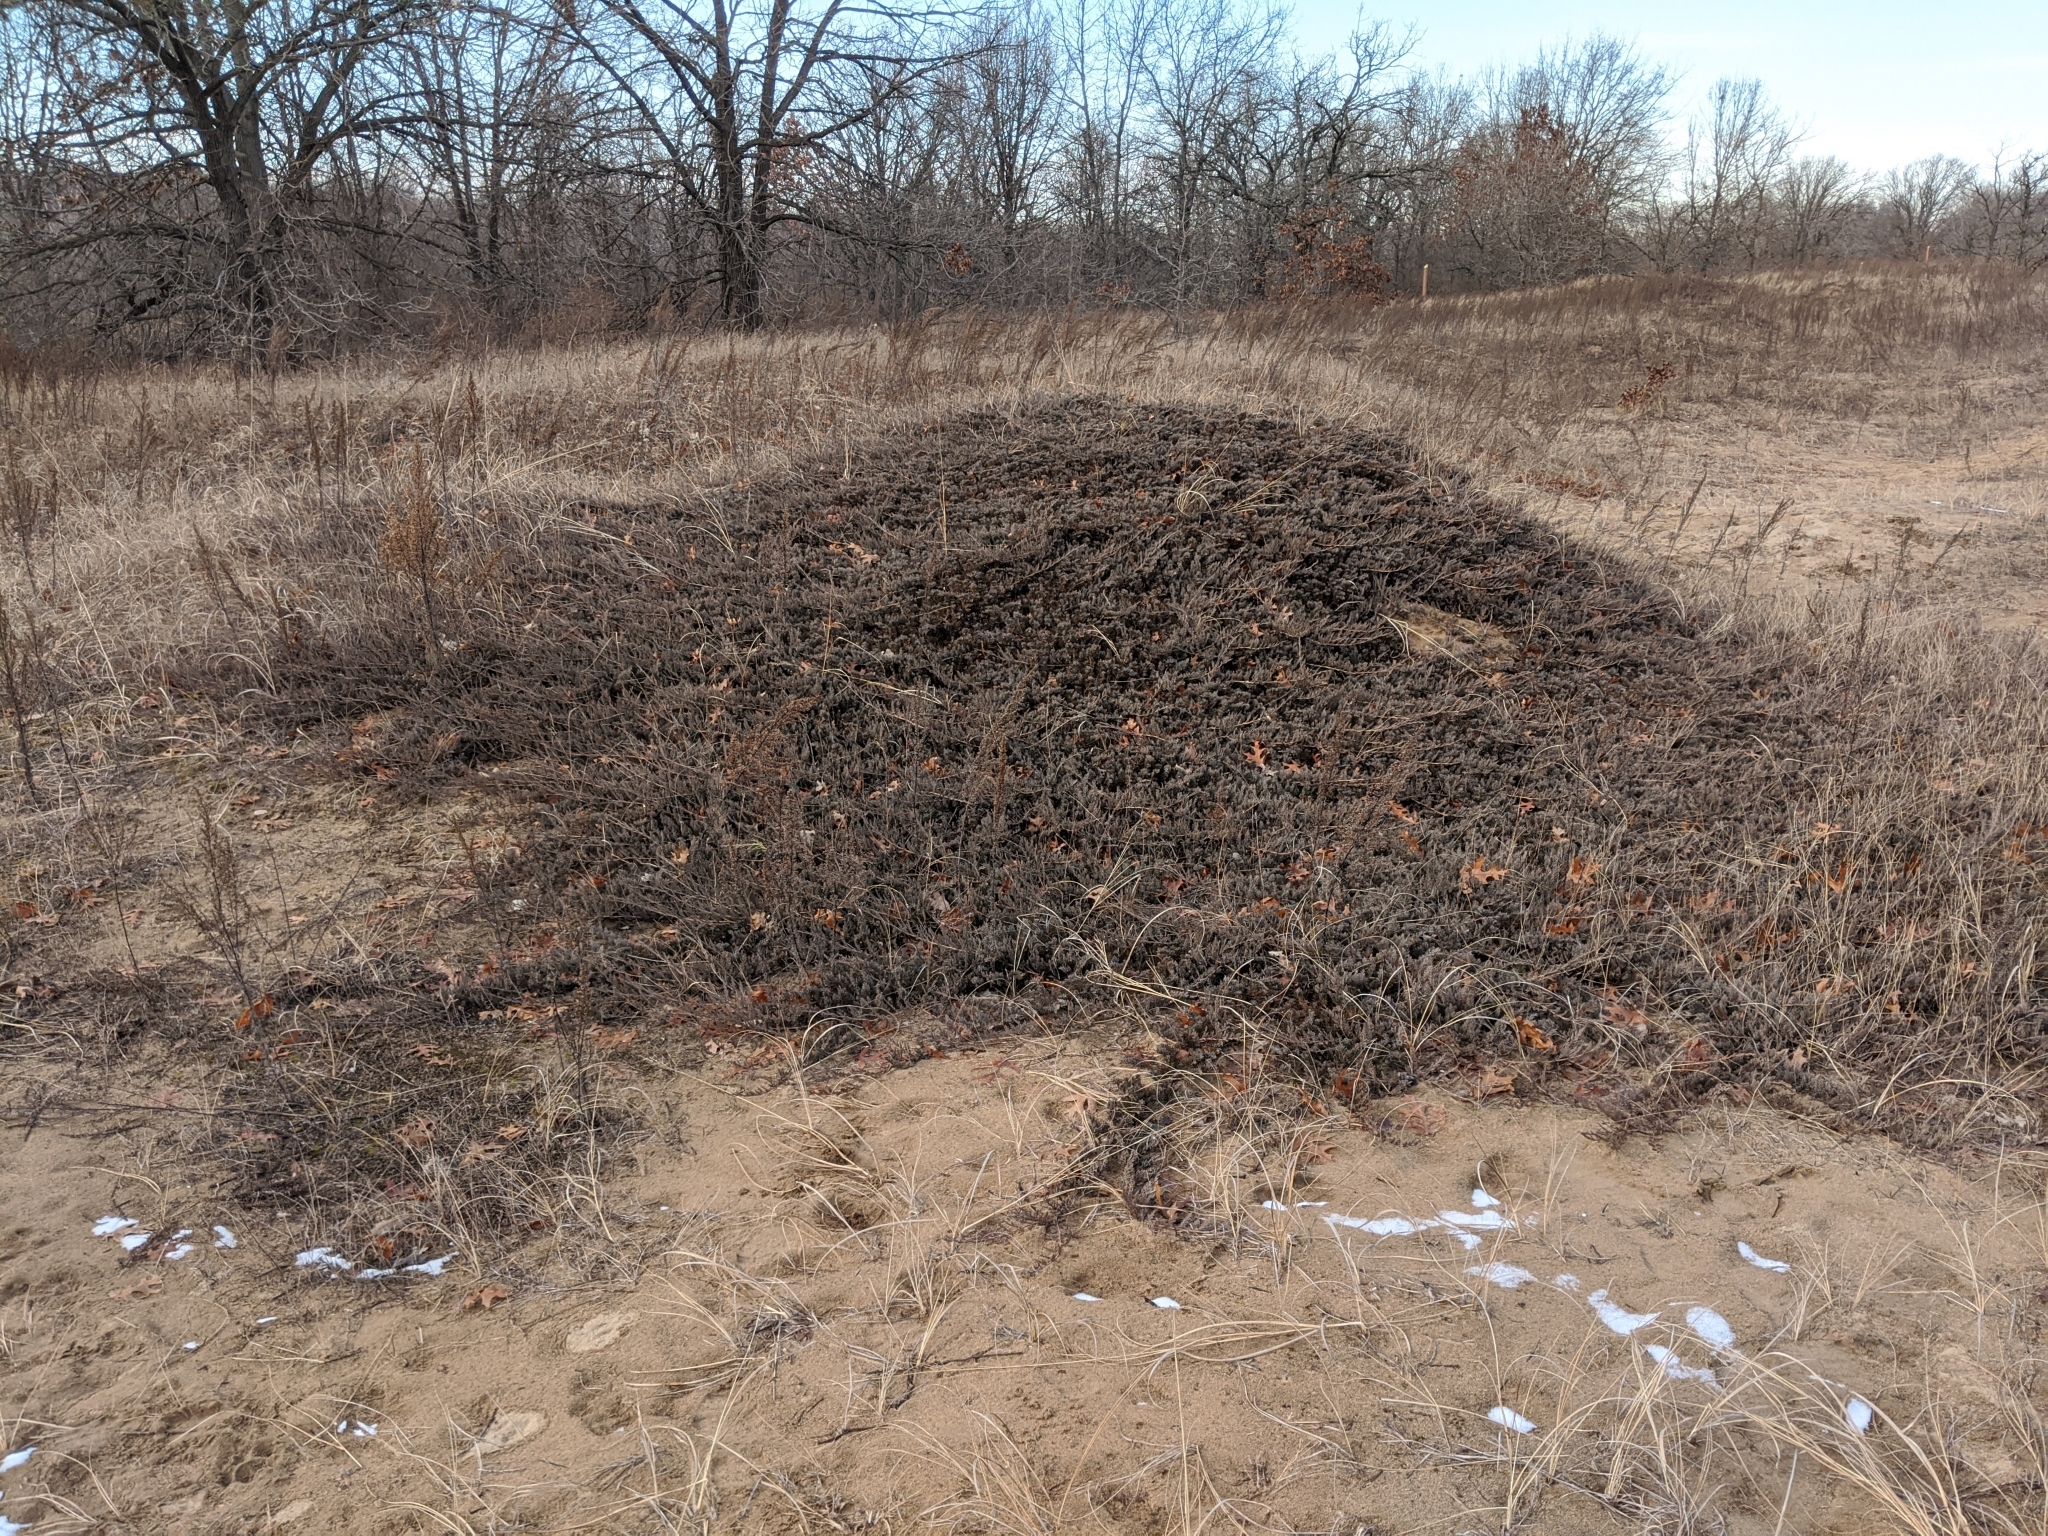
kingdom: Plantae
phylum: Tracheophyta
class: Pinopsida
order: Pinales
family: Cupressaceae
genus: Juniperus
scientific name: Juniperus horizontalis
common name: Creeping juniper
